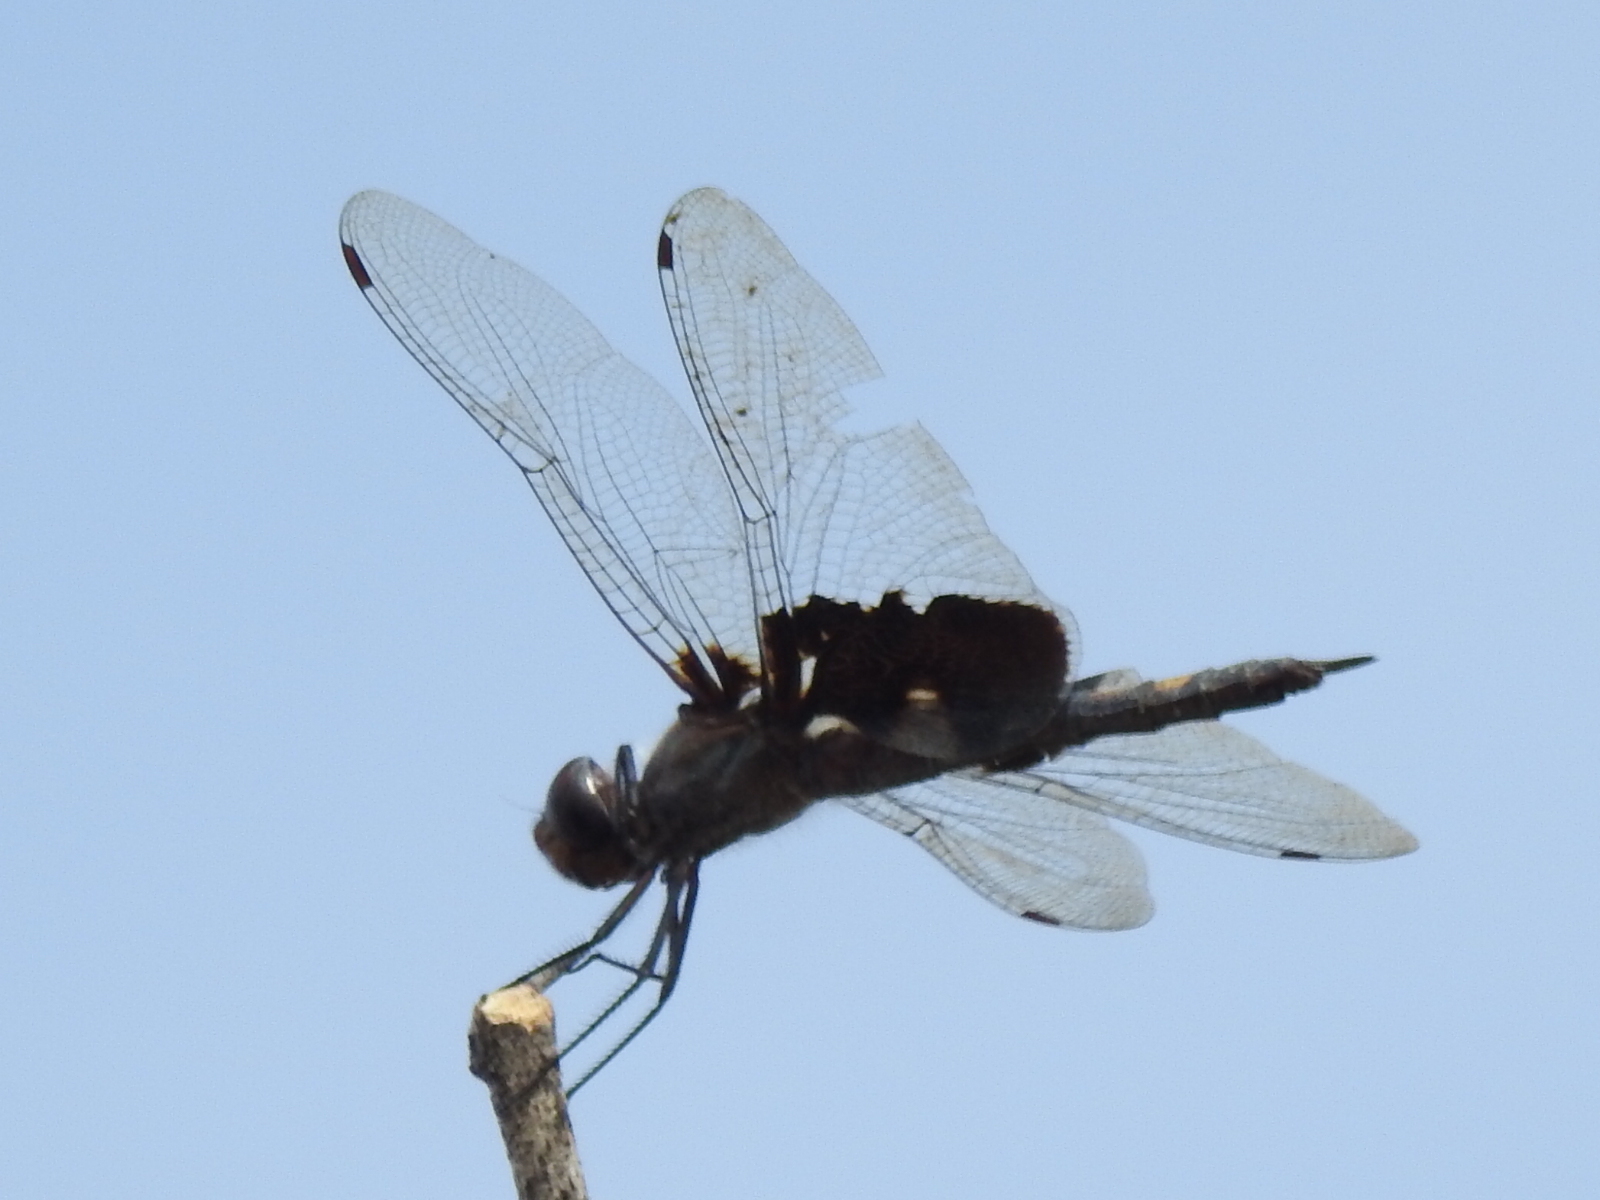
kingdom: Animalia
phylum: Arthropoda
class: Insecta
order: Odonata
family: Libellulidae
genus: Tramea
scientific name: Tramea lacerata
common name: Black saddlebags
